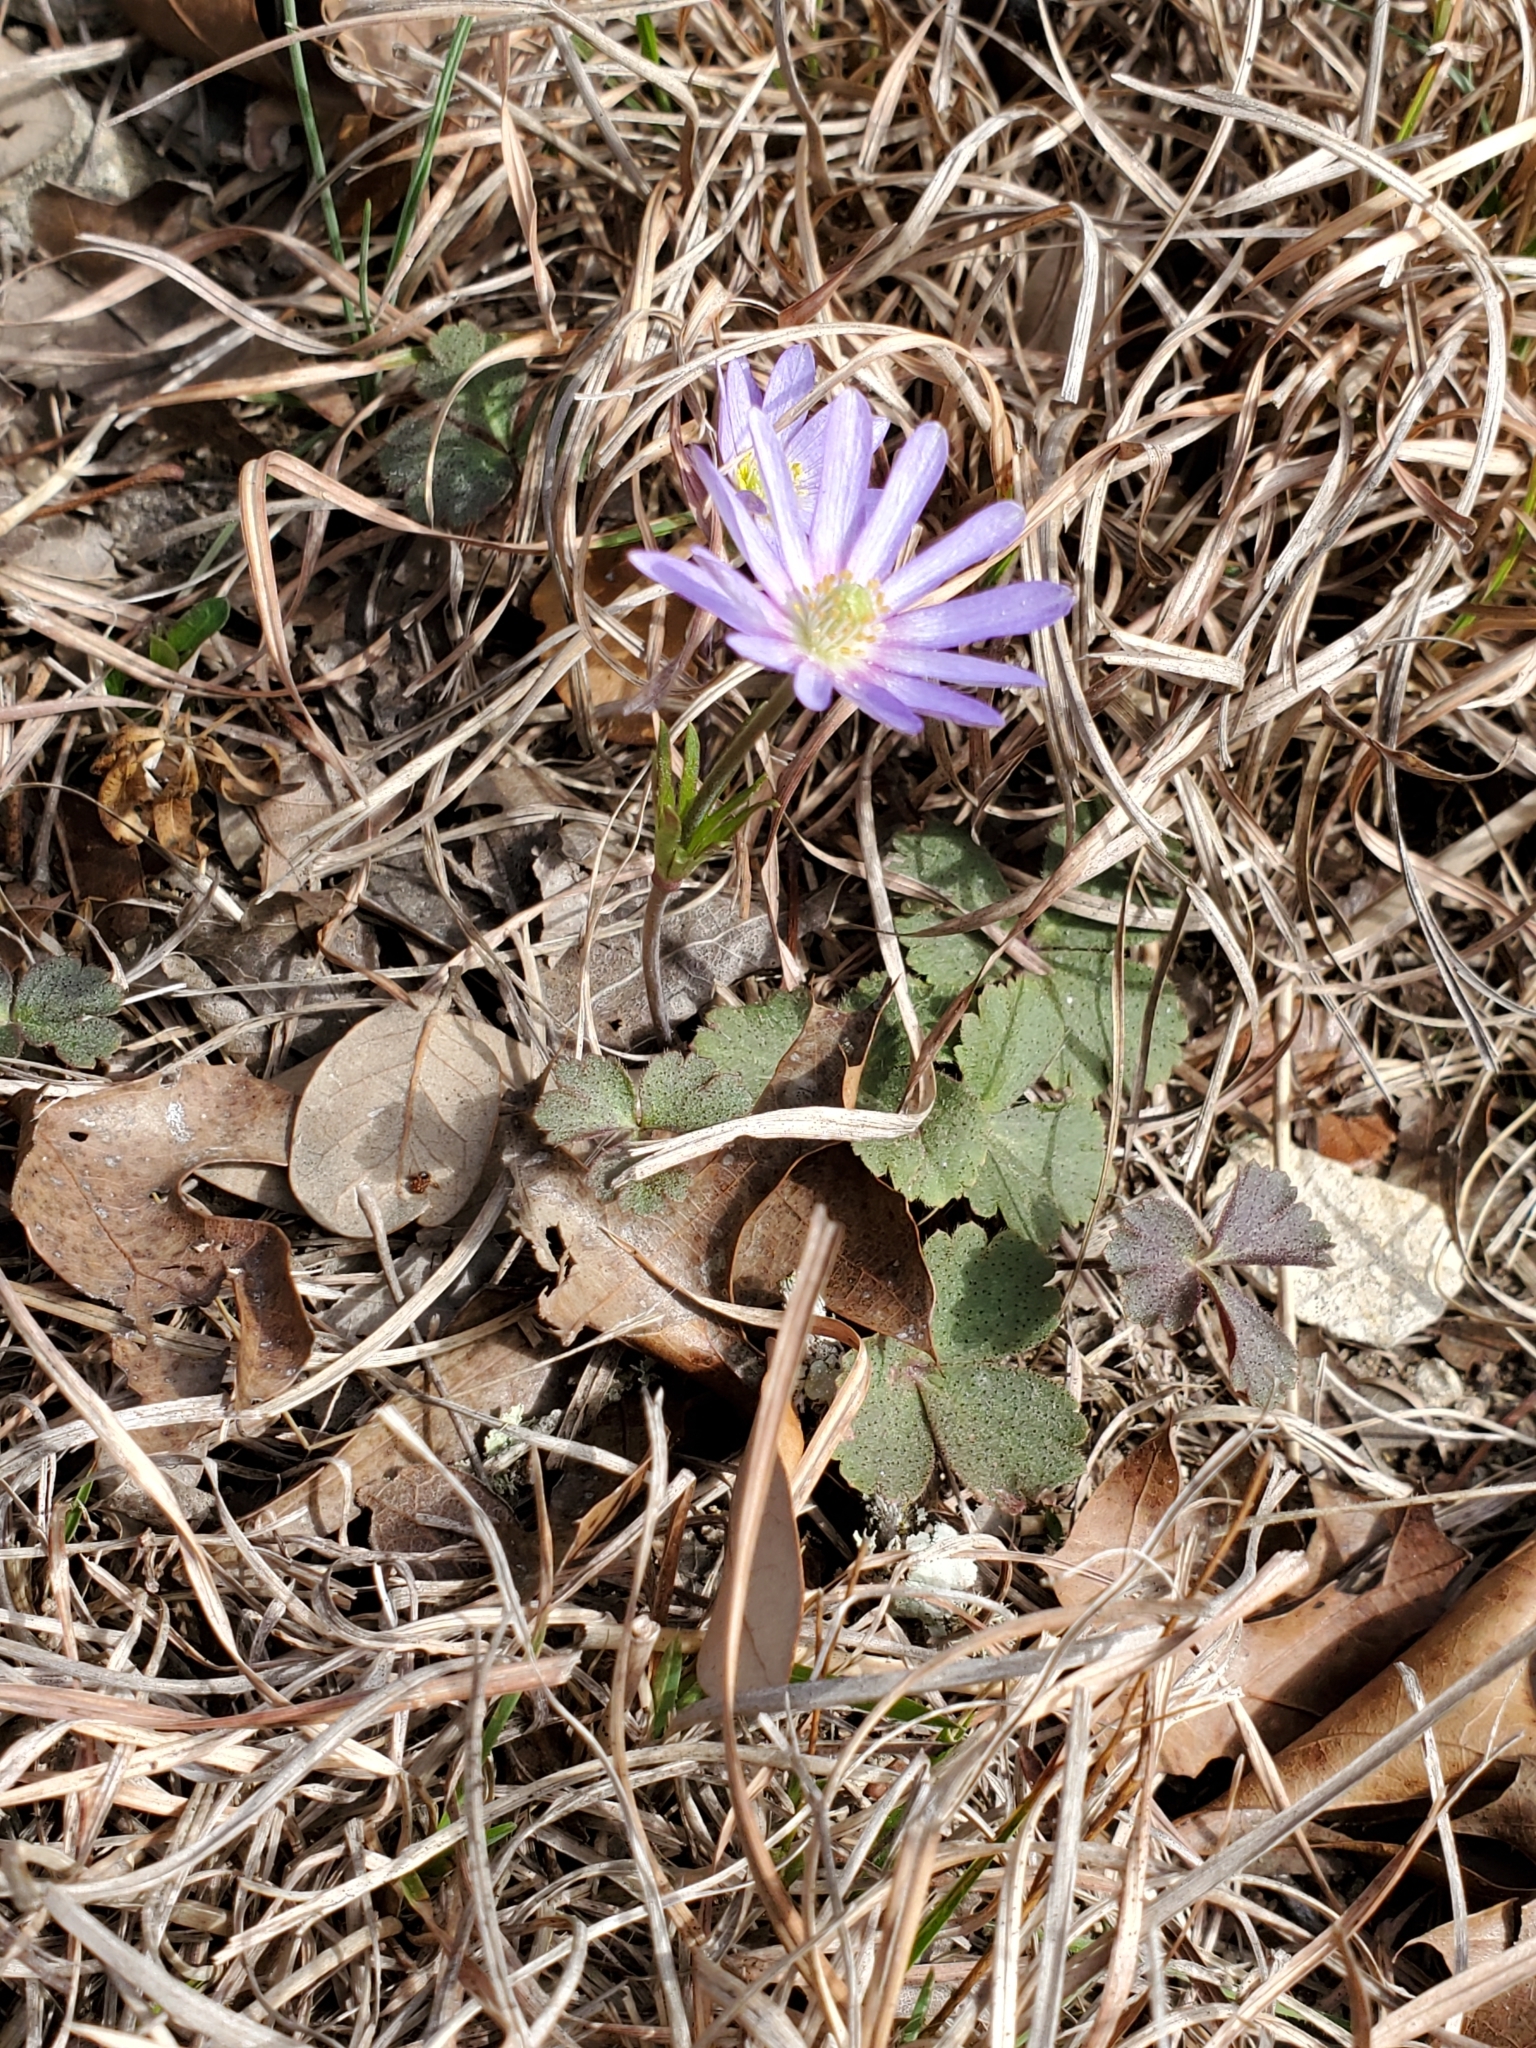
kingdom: Plantae
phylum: Tracheophyta
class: Magnoliopsida
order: Ranunculales
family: Ranunculaceae
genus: Anemone
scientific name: Anemone berlandieri
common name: Ten-petal anemone
